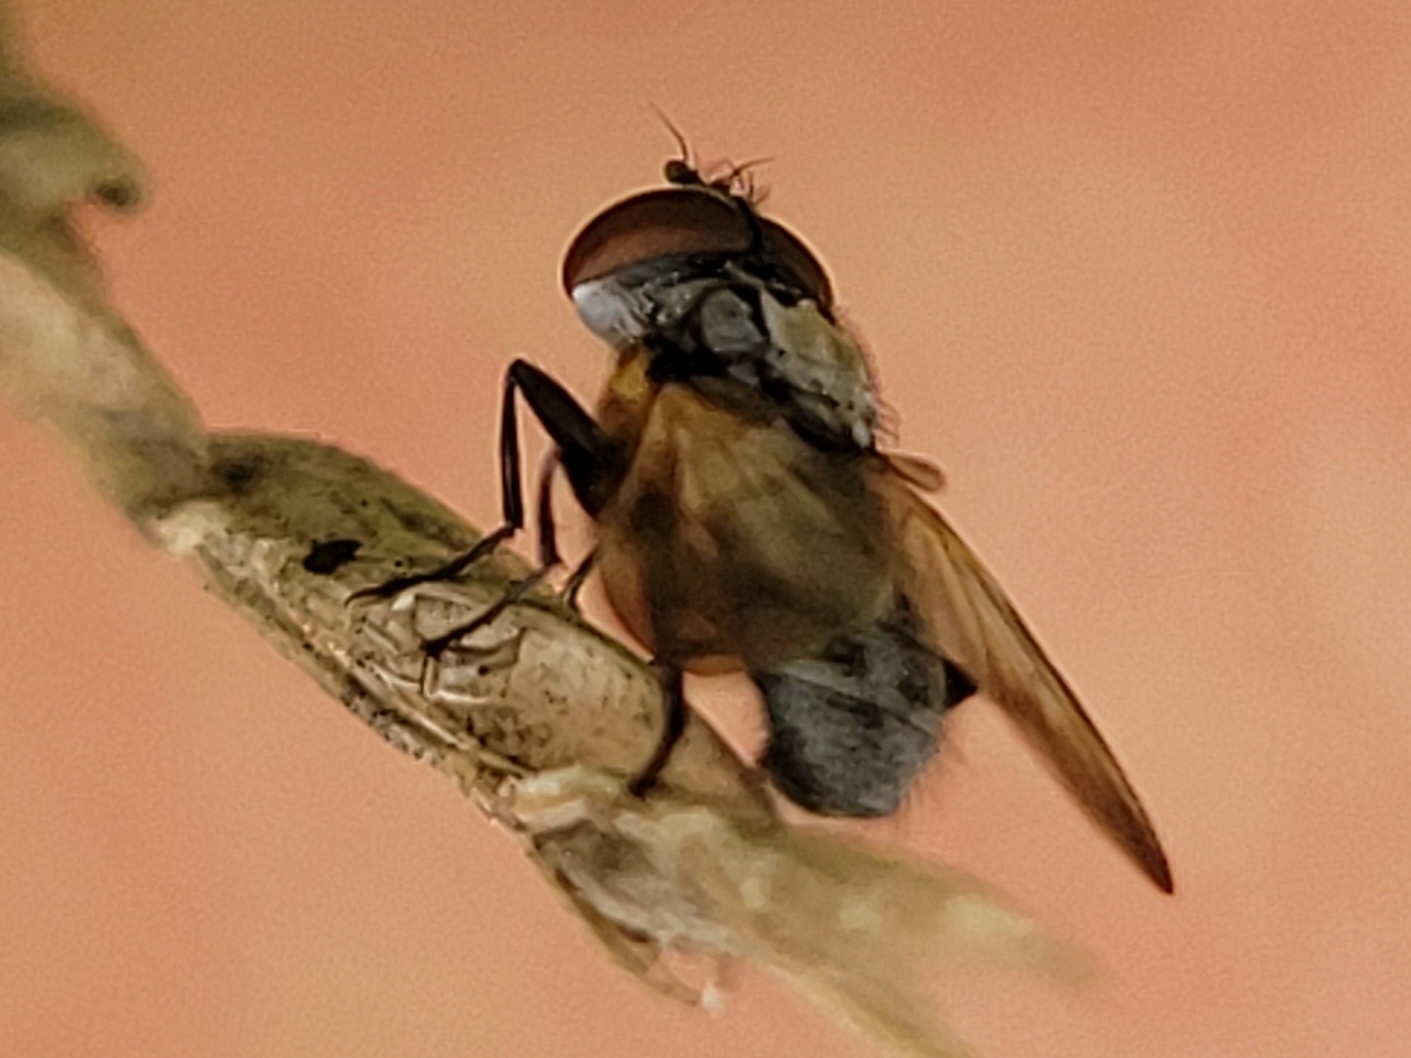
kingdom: Animalia
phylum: Arthropoda
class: Insecta
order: Diptera
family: Tachinidae
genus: Phasia
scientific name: Phasia obesa
